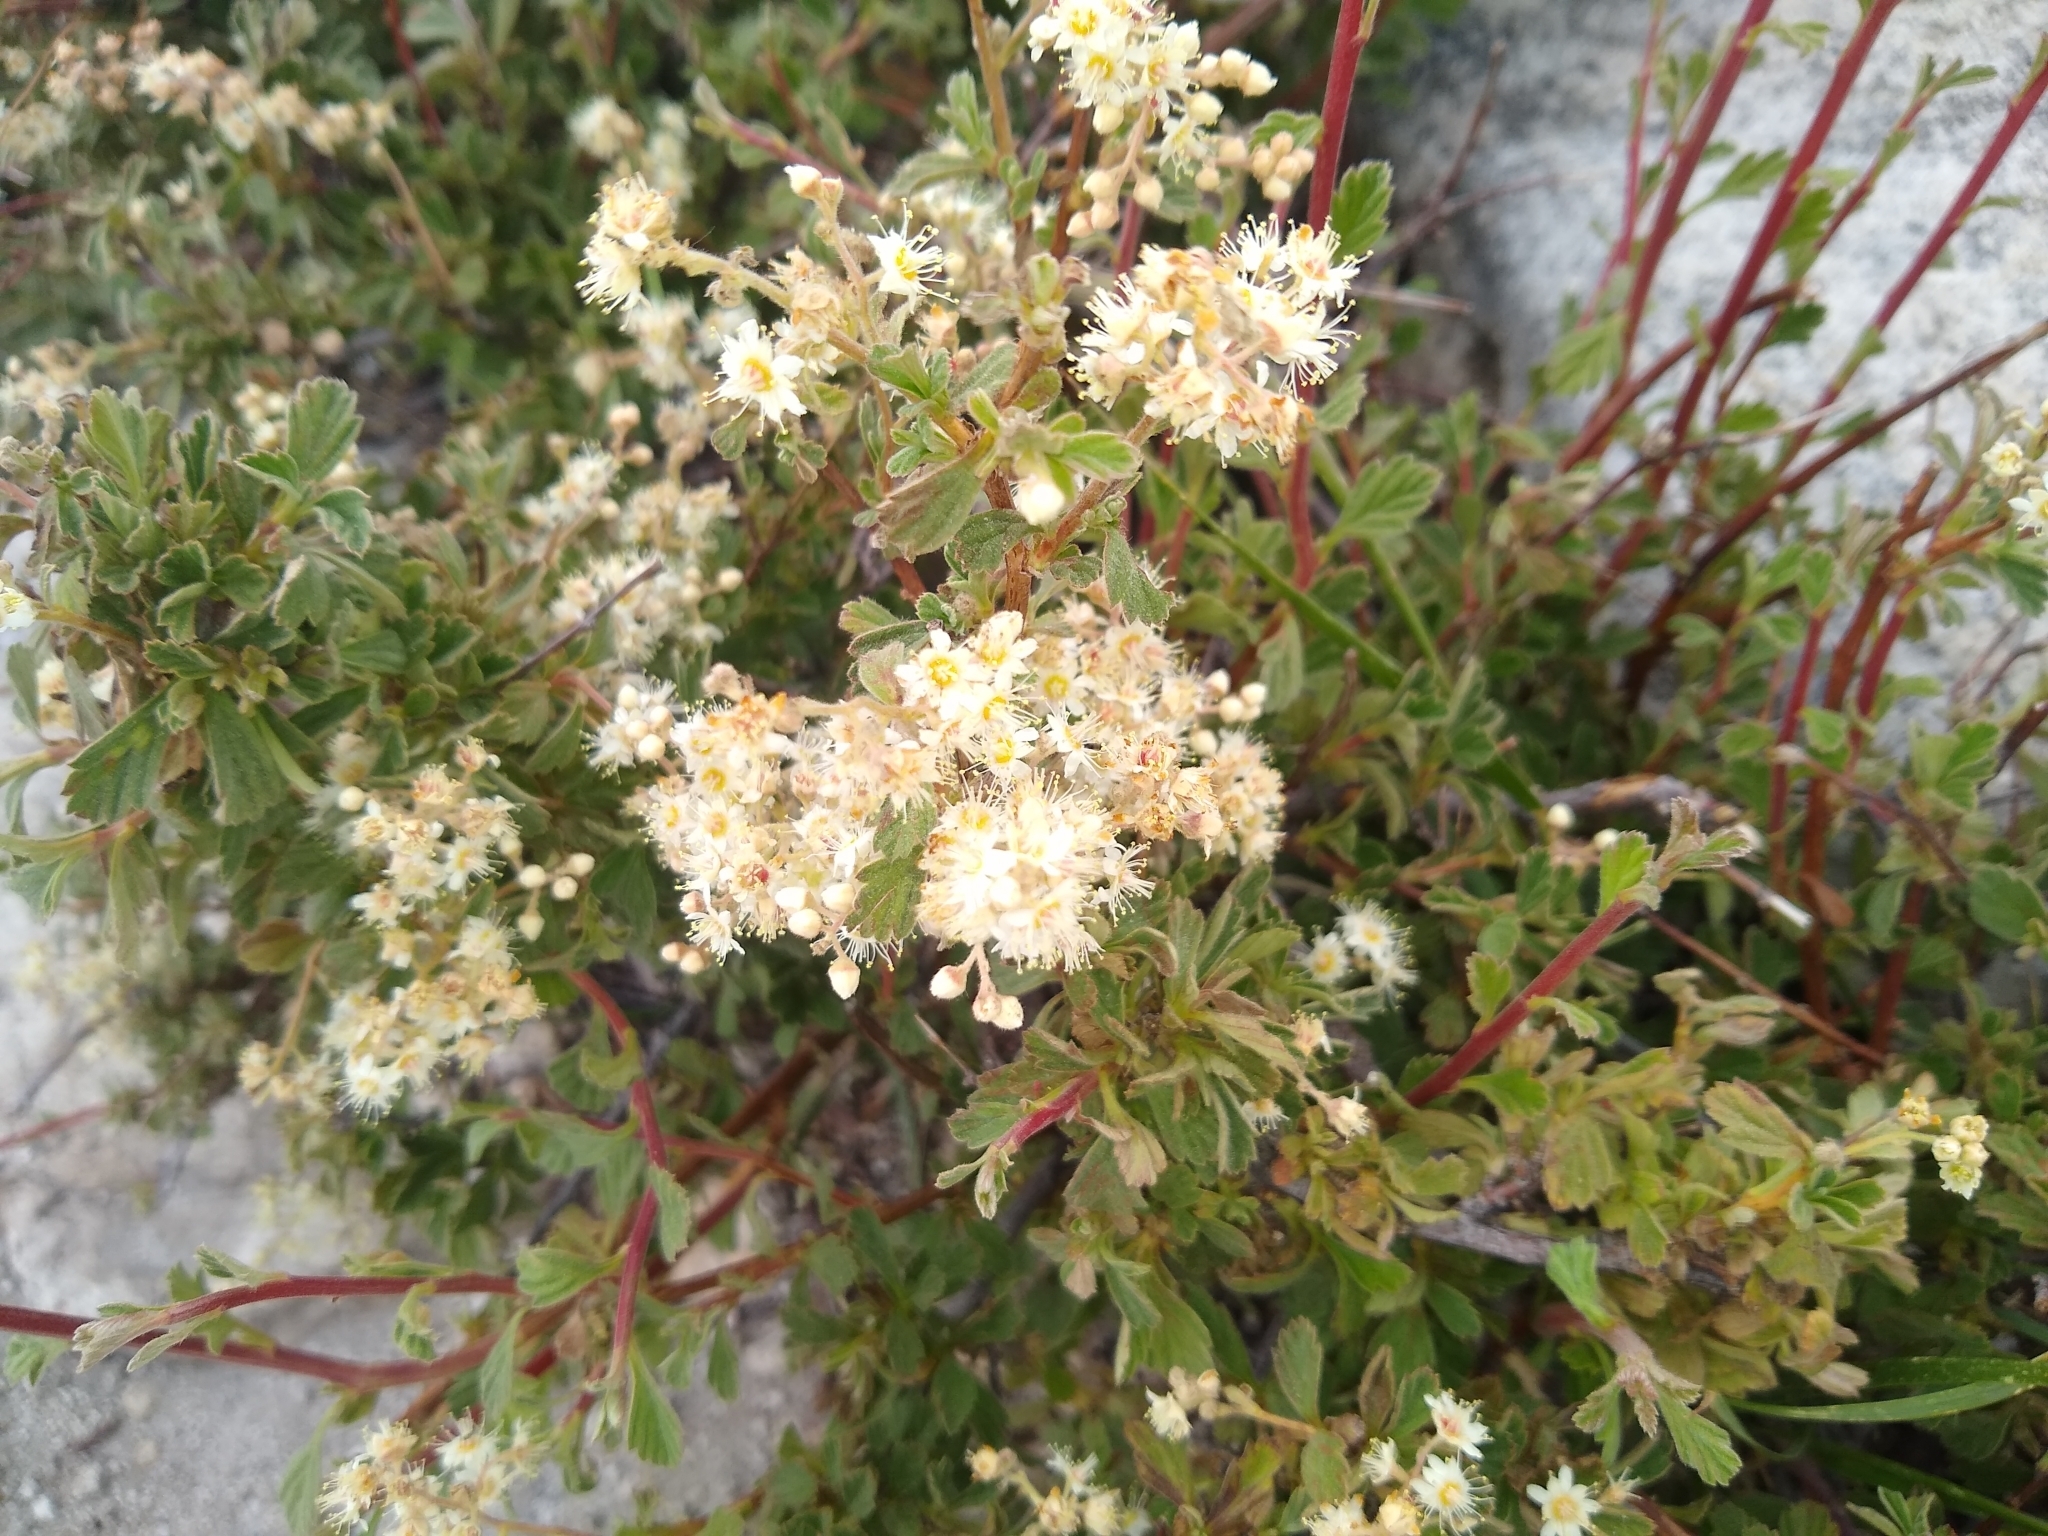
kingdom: Plantae
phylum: Tracheophyta
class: Magnoliopsida
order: Rosales
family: Rosaceae
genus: Holodiscus
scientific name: Holodiscus discolor
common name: Oceanspray
